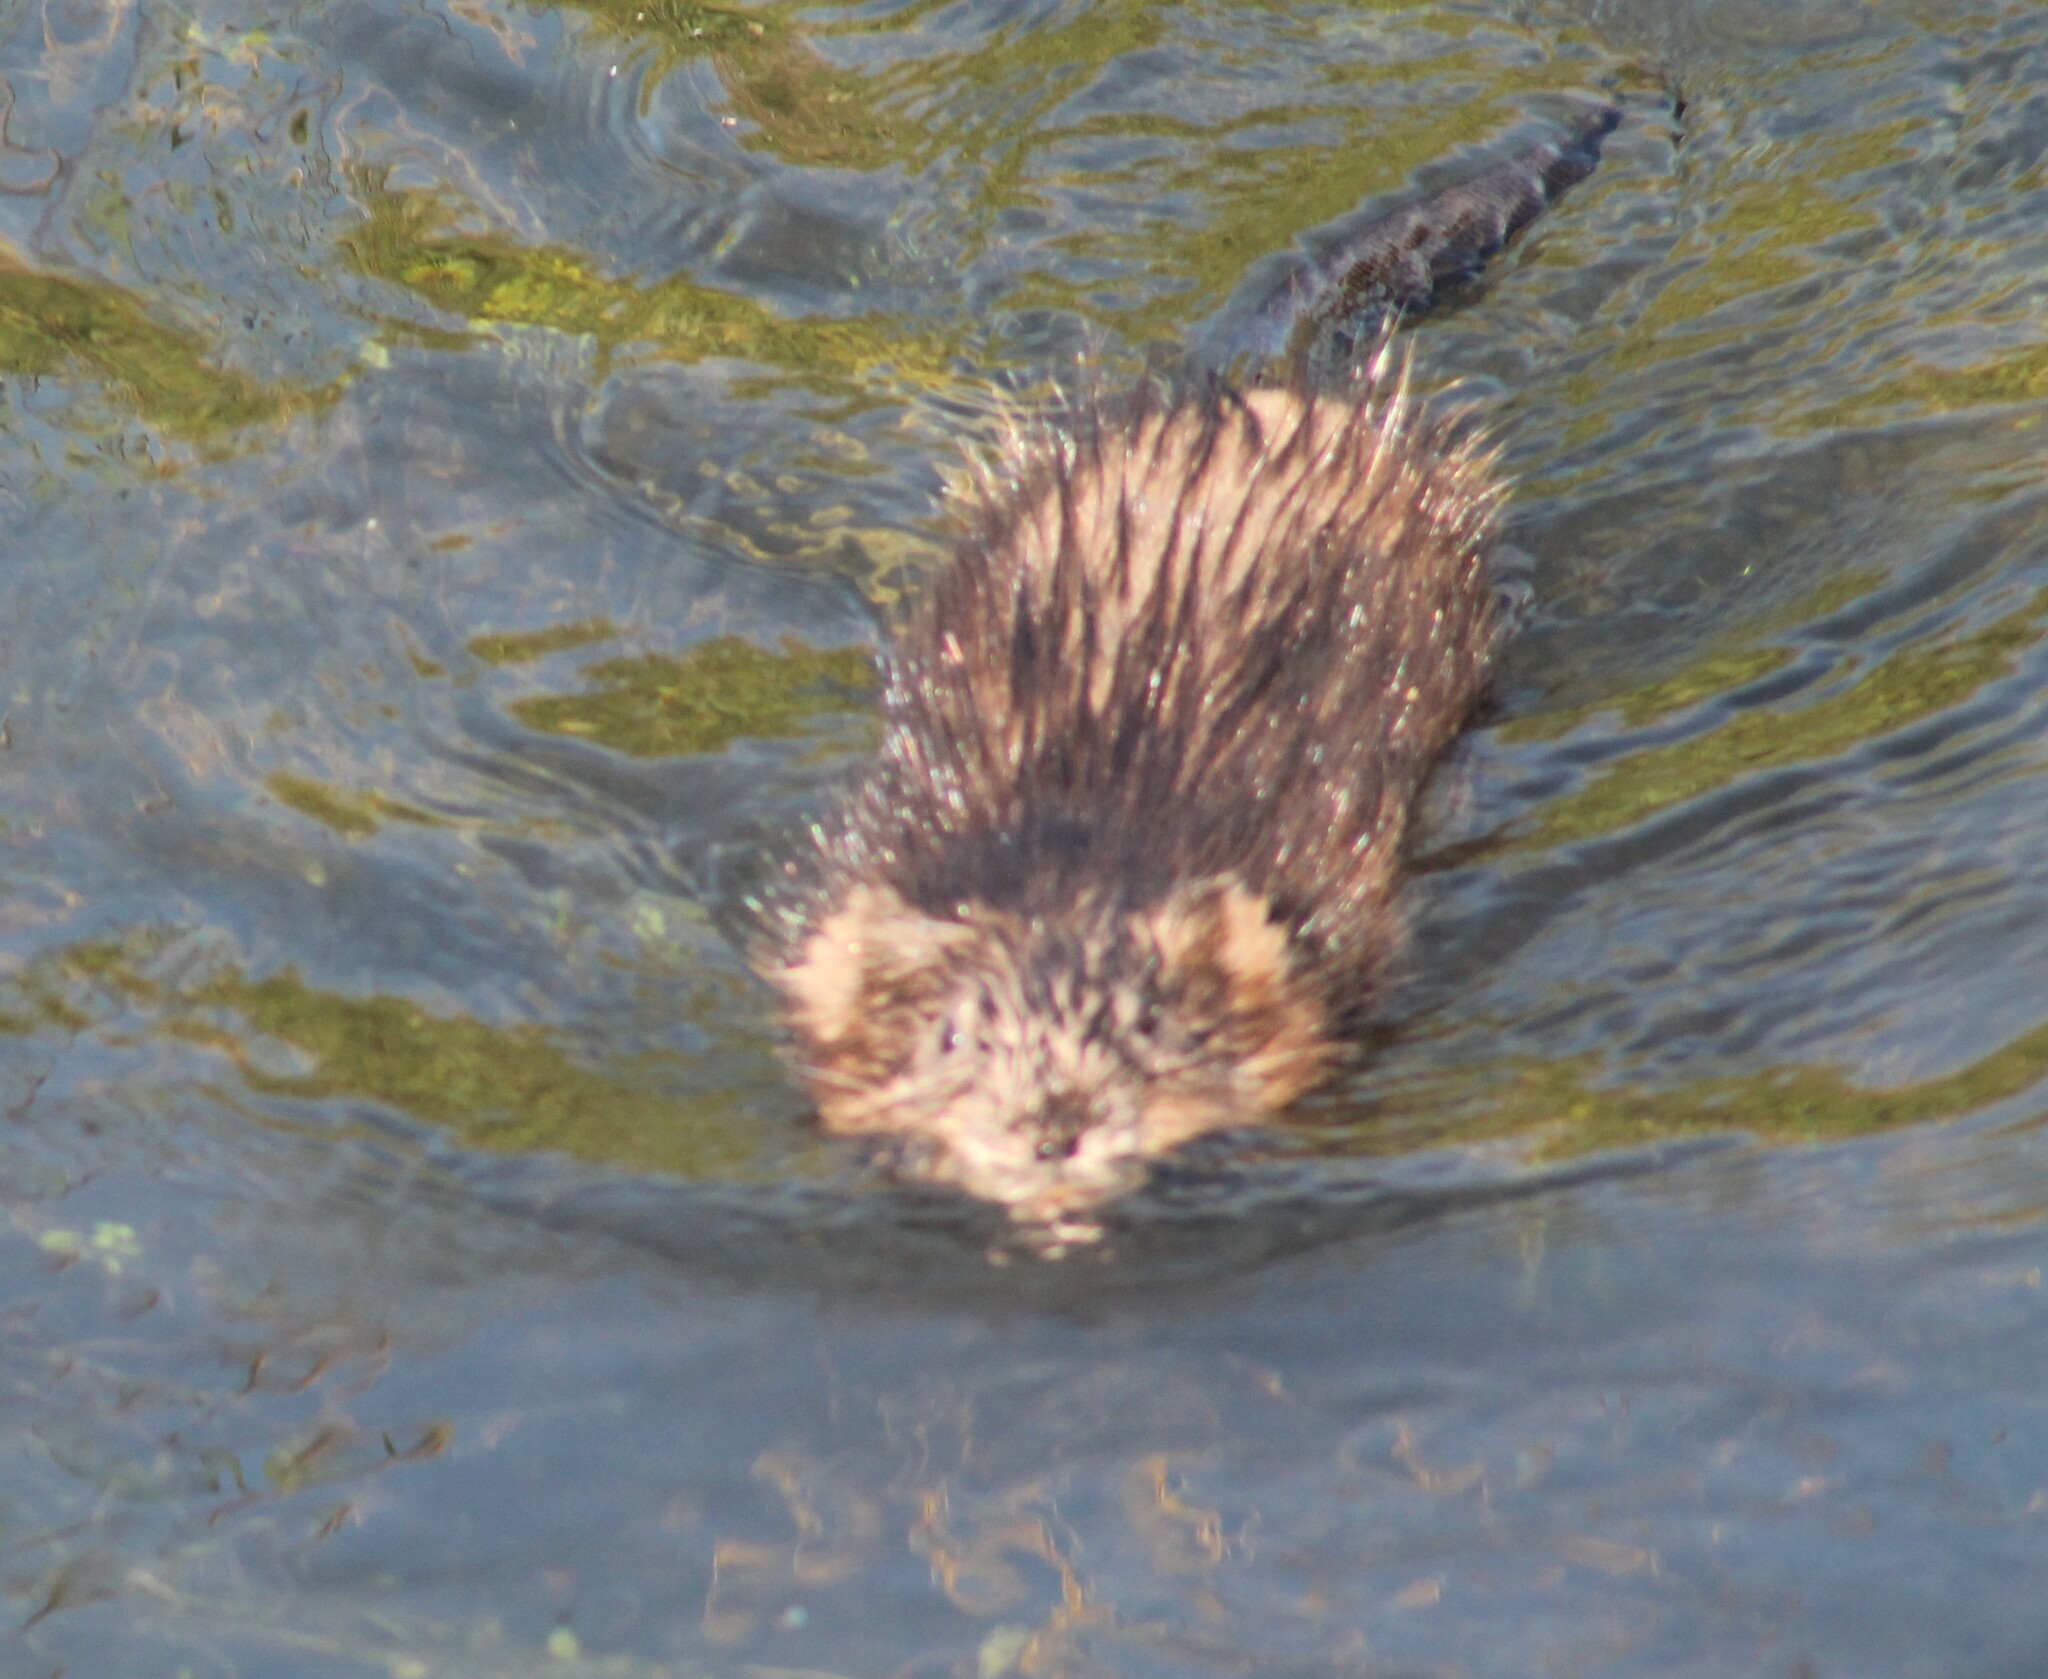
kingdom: Animalia
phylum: Chordata
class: Mammalia
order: Rodentia
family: Cricetidae
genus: Ondatra
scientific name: Ondatra zibethicus
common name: Muskrat
